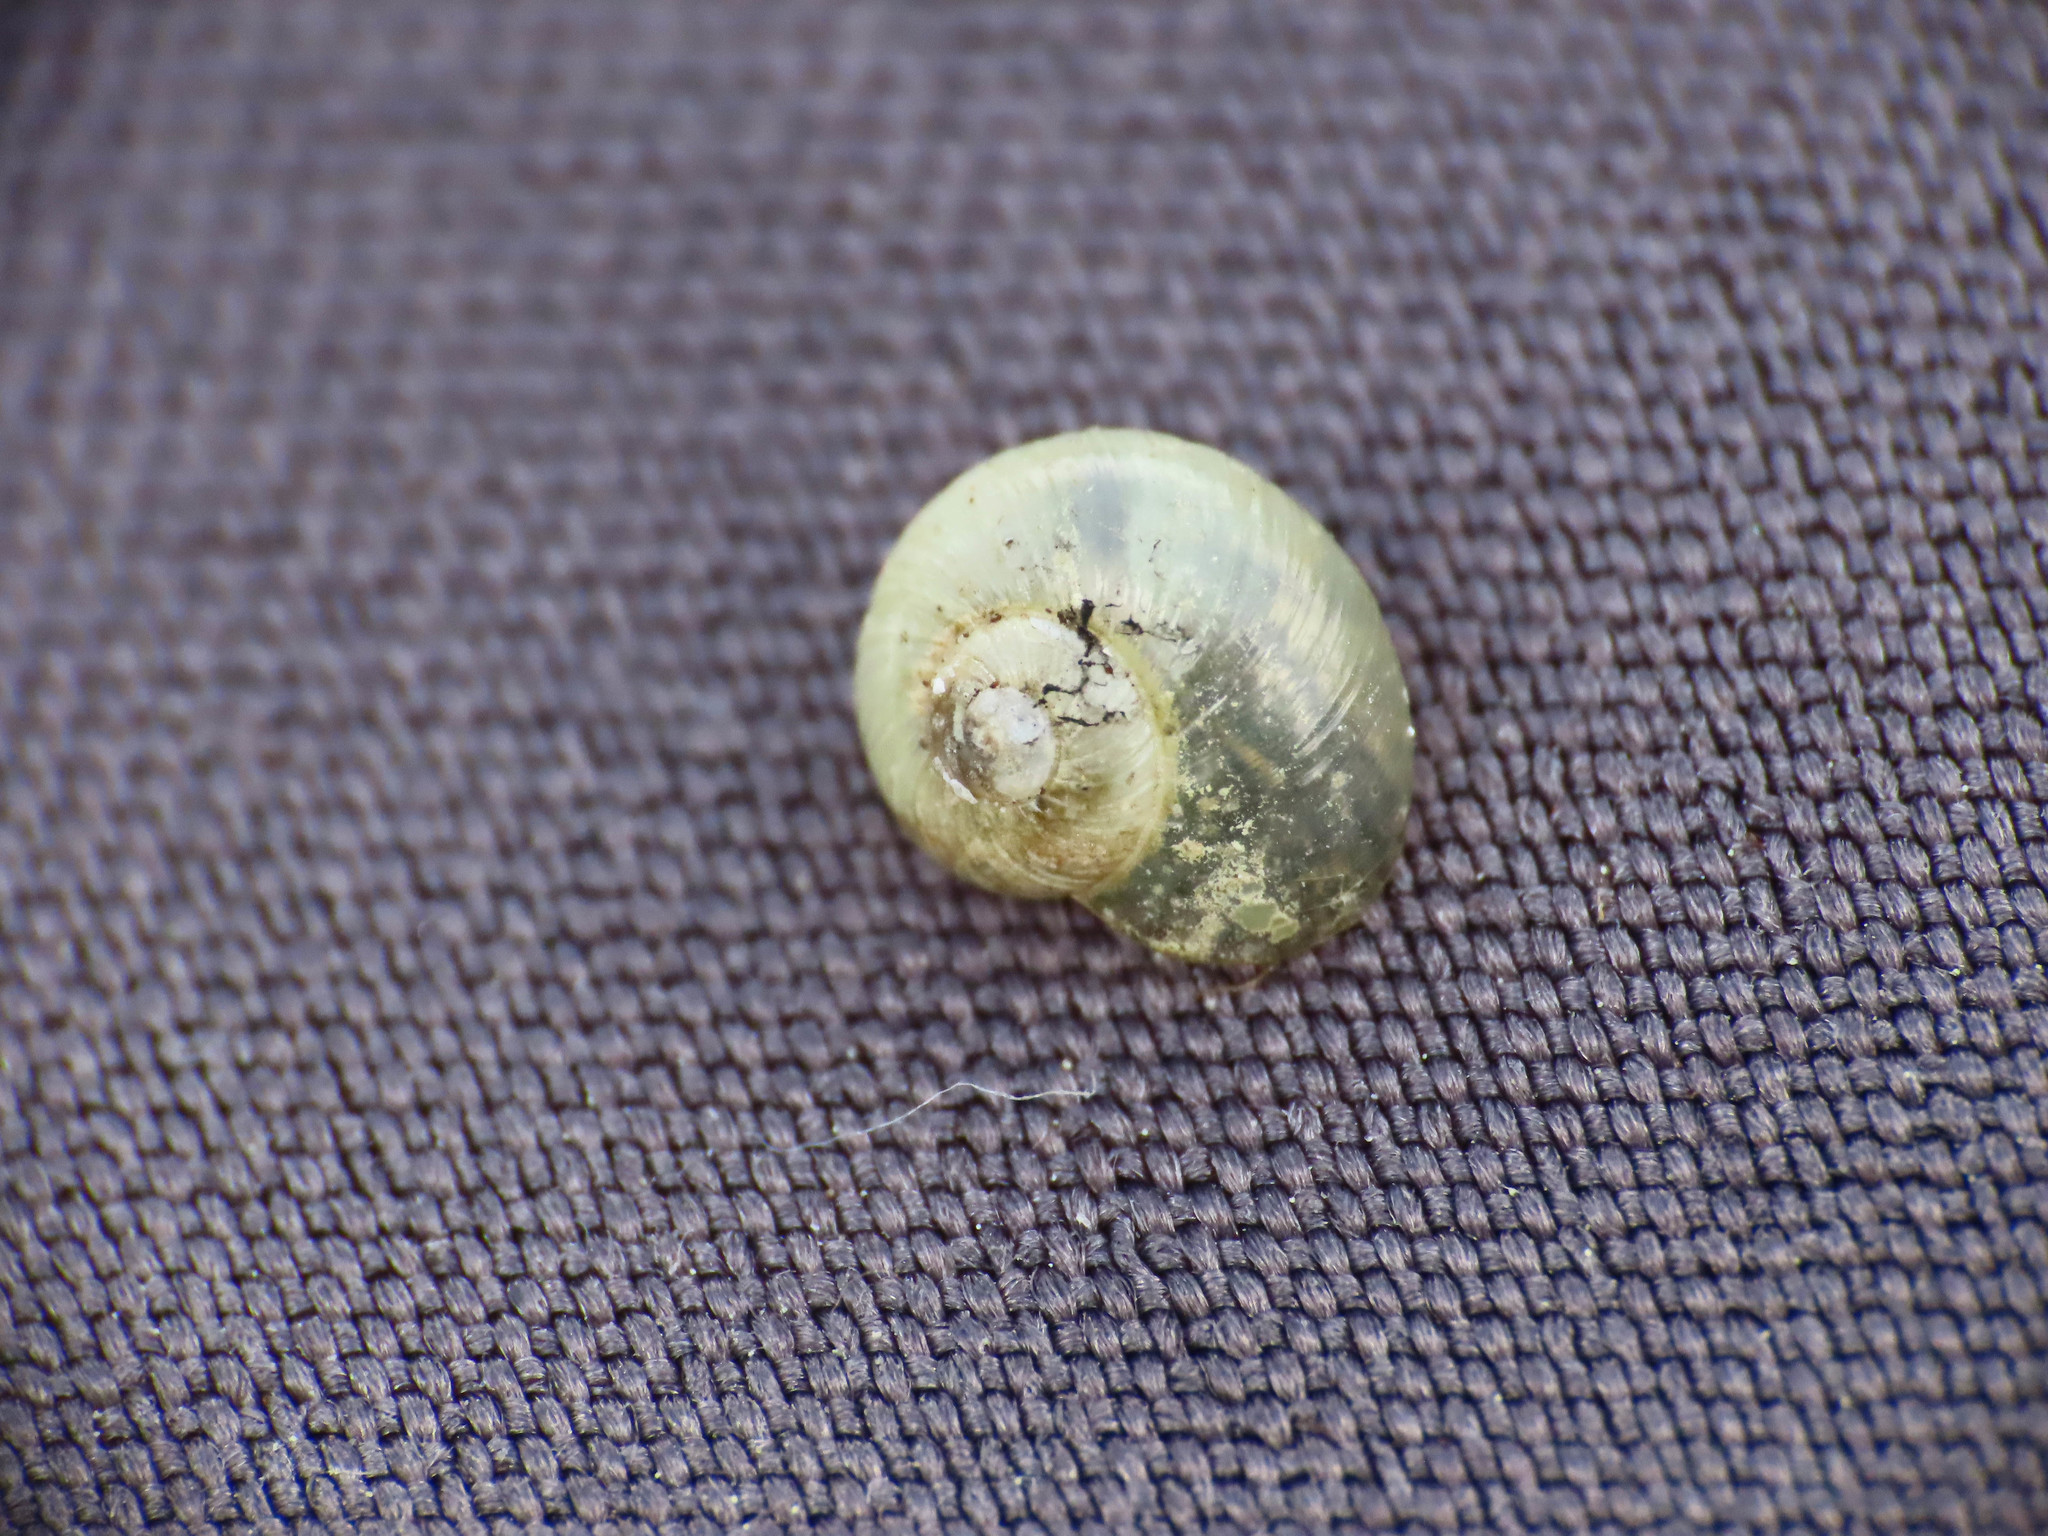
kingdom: Animalia
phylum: Mollusca
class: Gastropoda
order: Stylommatophora
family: Vitrinidae
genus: Oligolimax
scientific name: Oligolimax annularis
